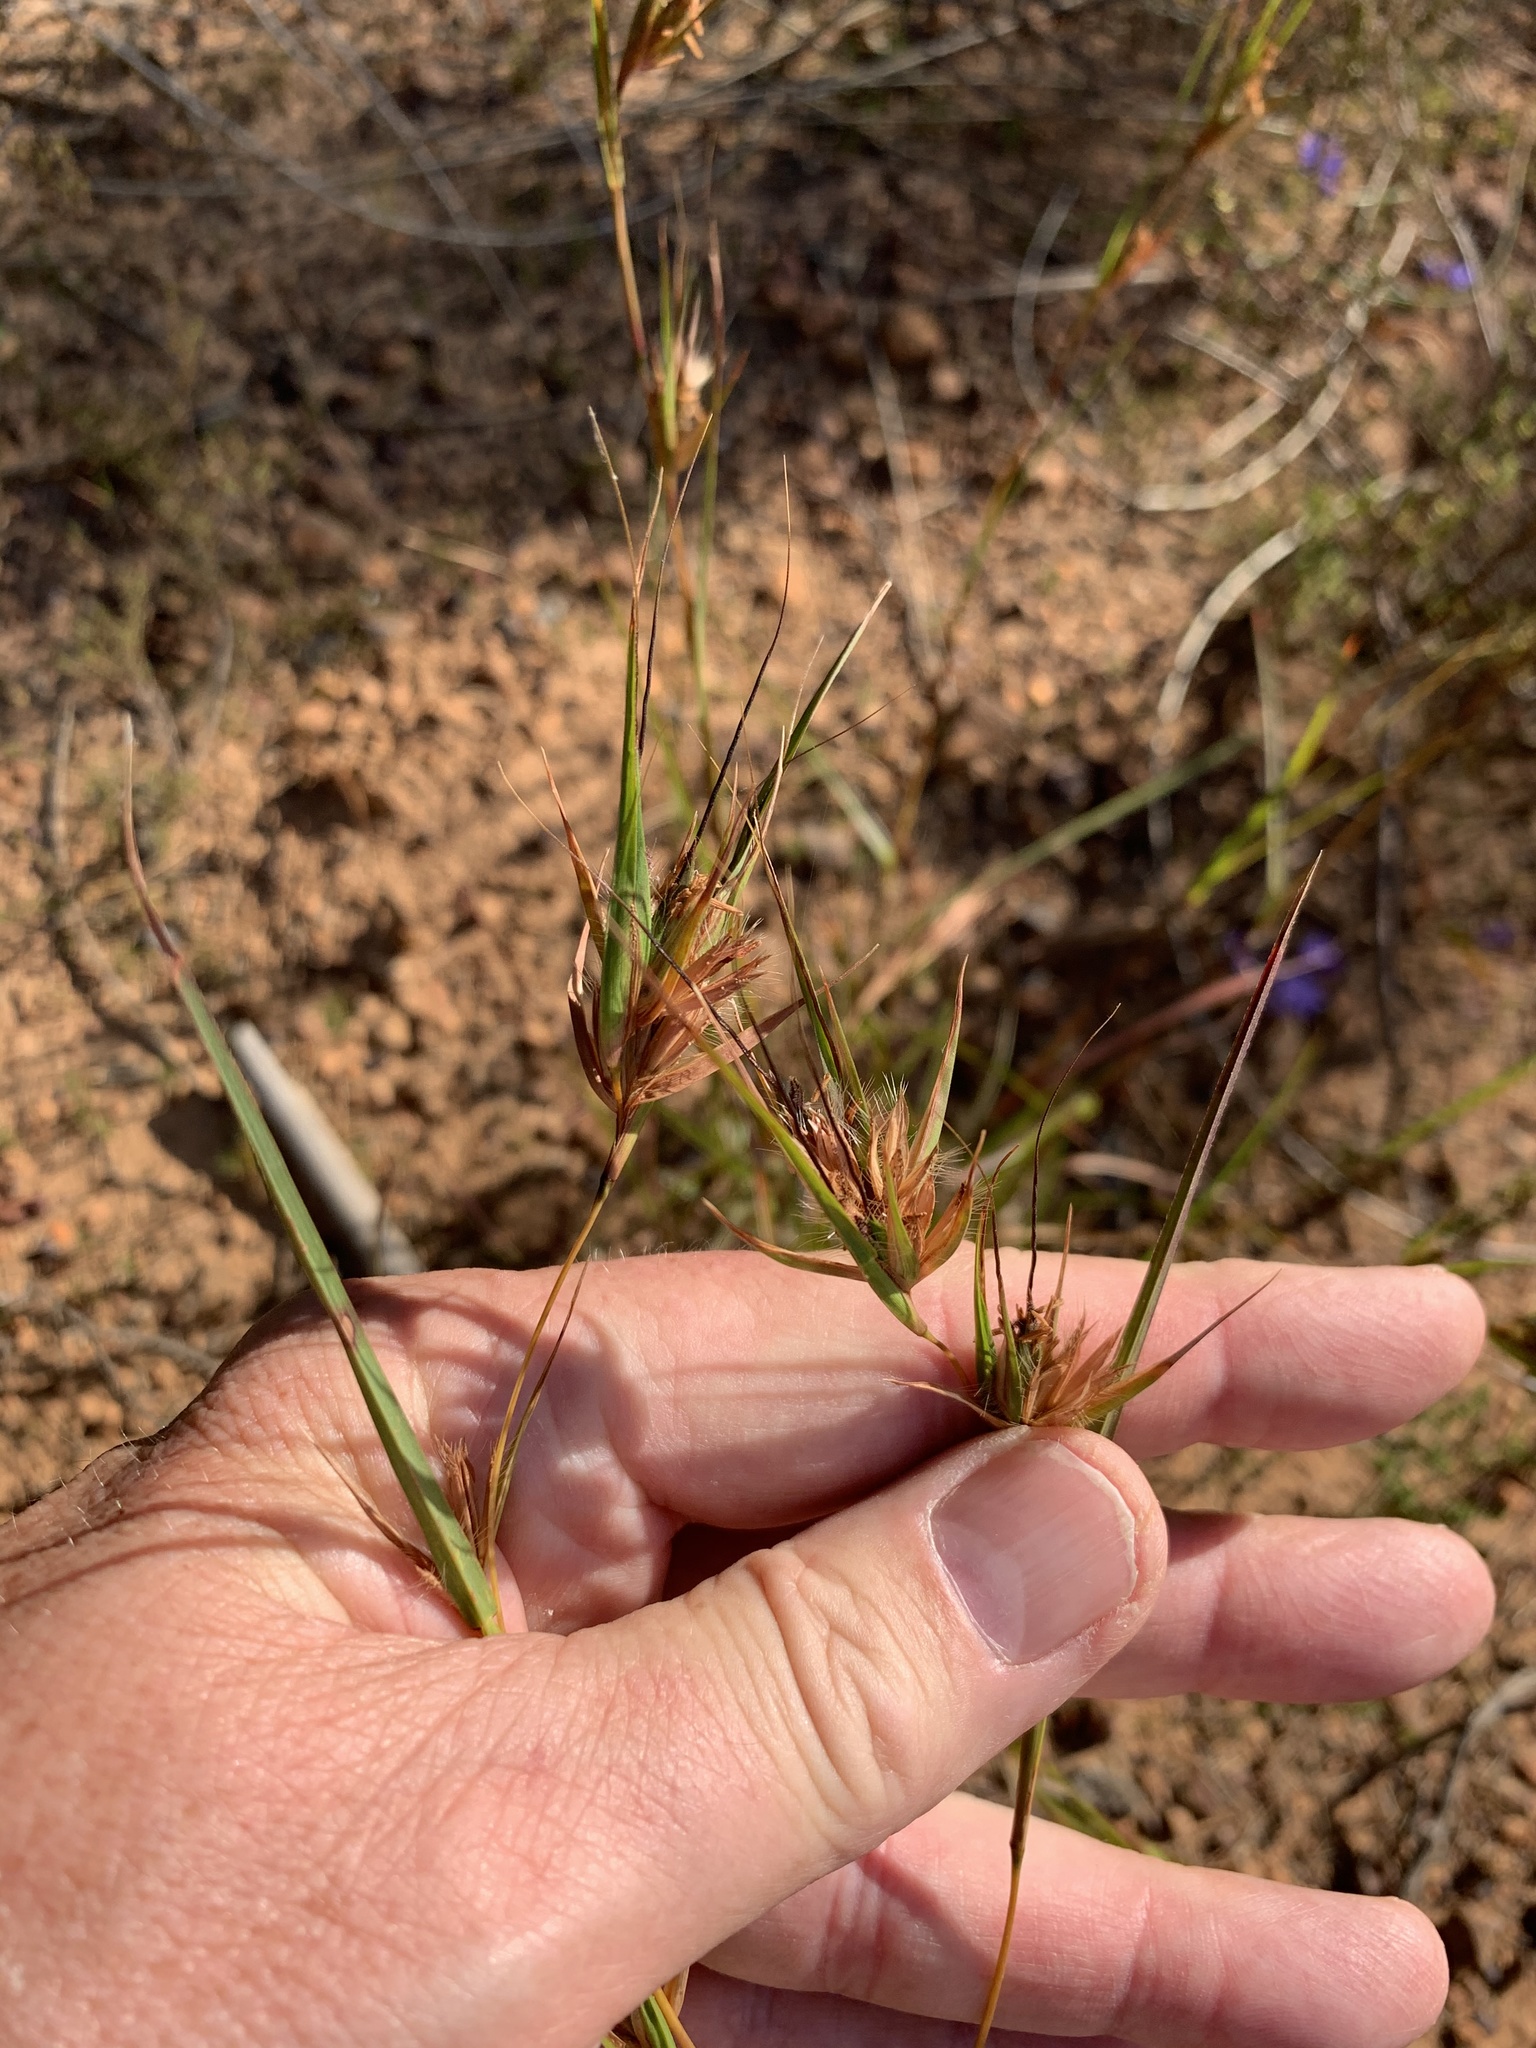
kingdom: Plantae
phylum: Tracheophyta
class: Liliopsida
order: Poales
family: Poaceae
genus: Themeda
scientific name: Themeda triandra
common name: Kangaroo grass
